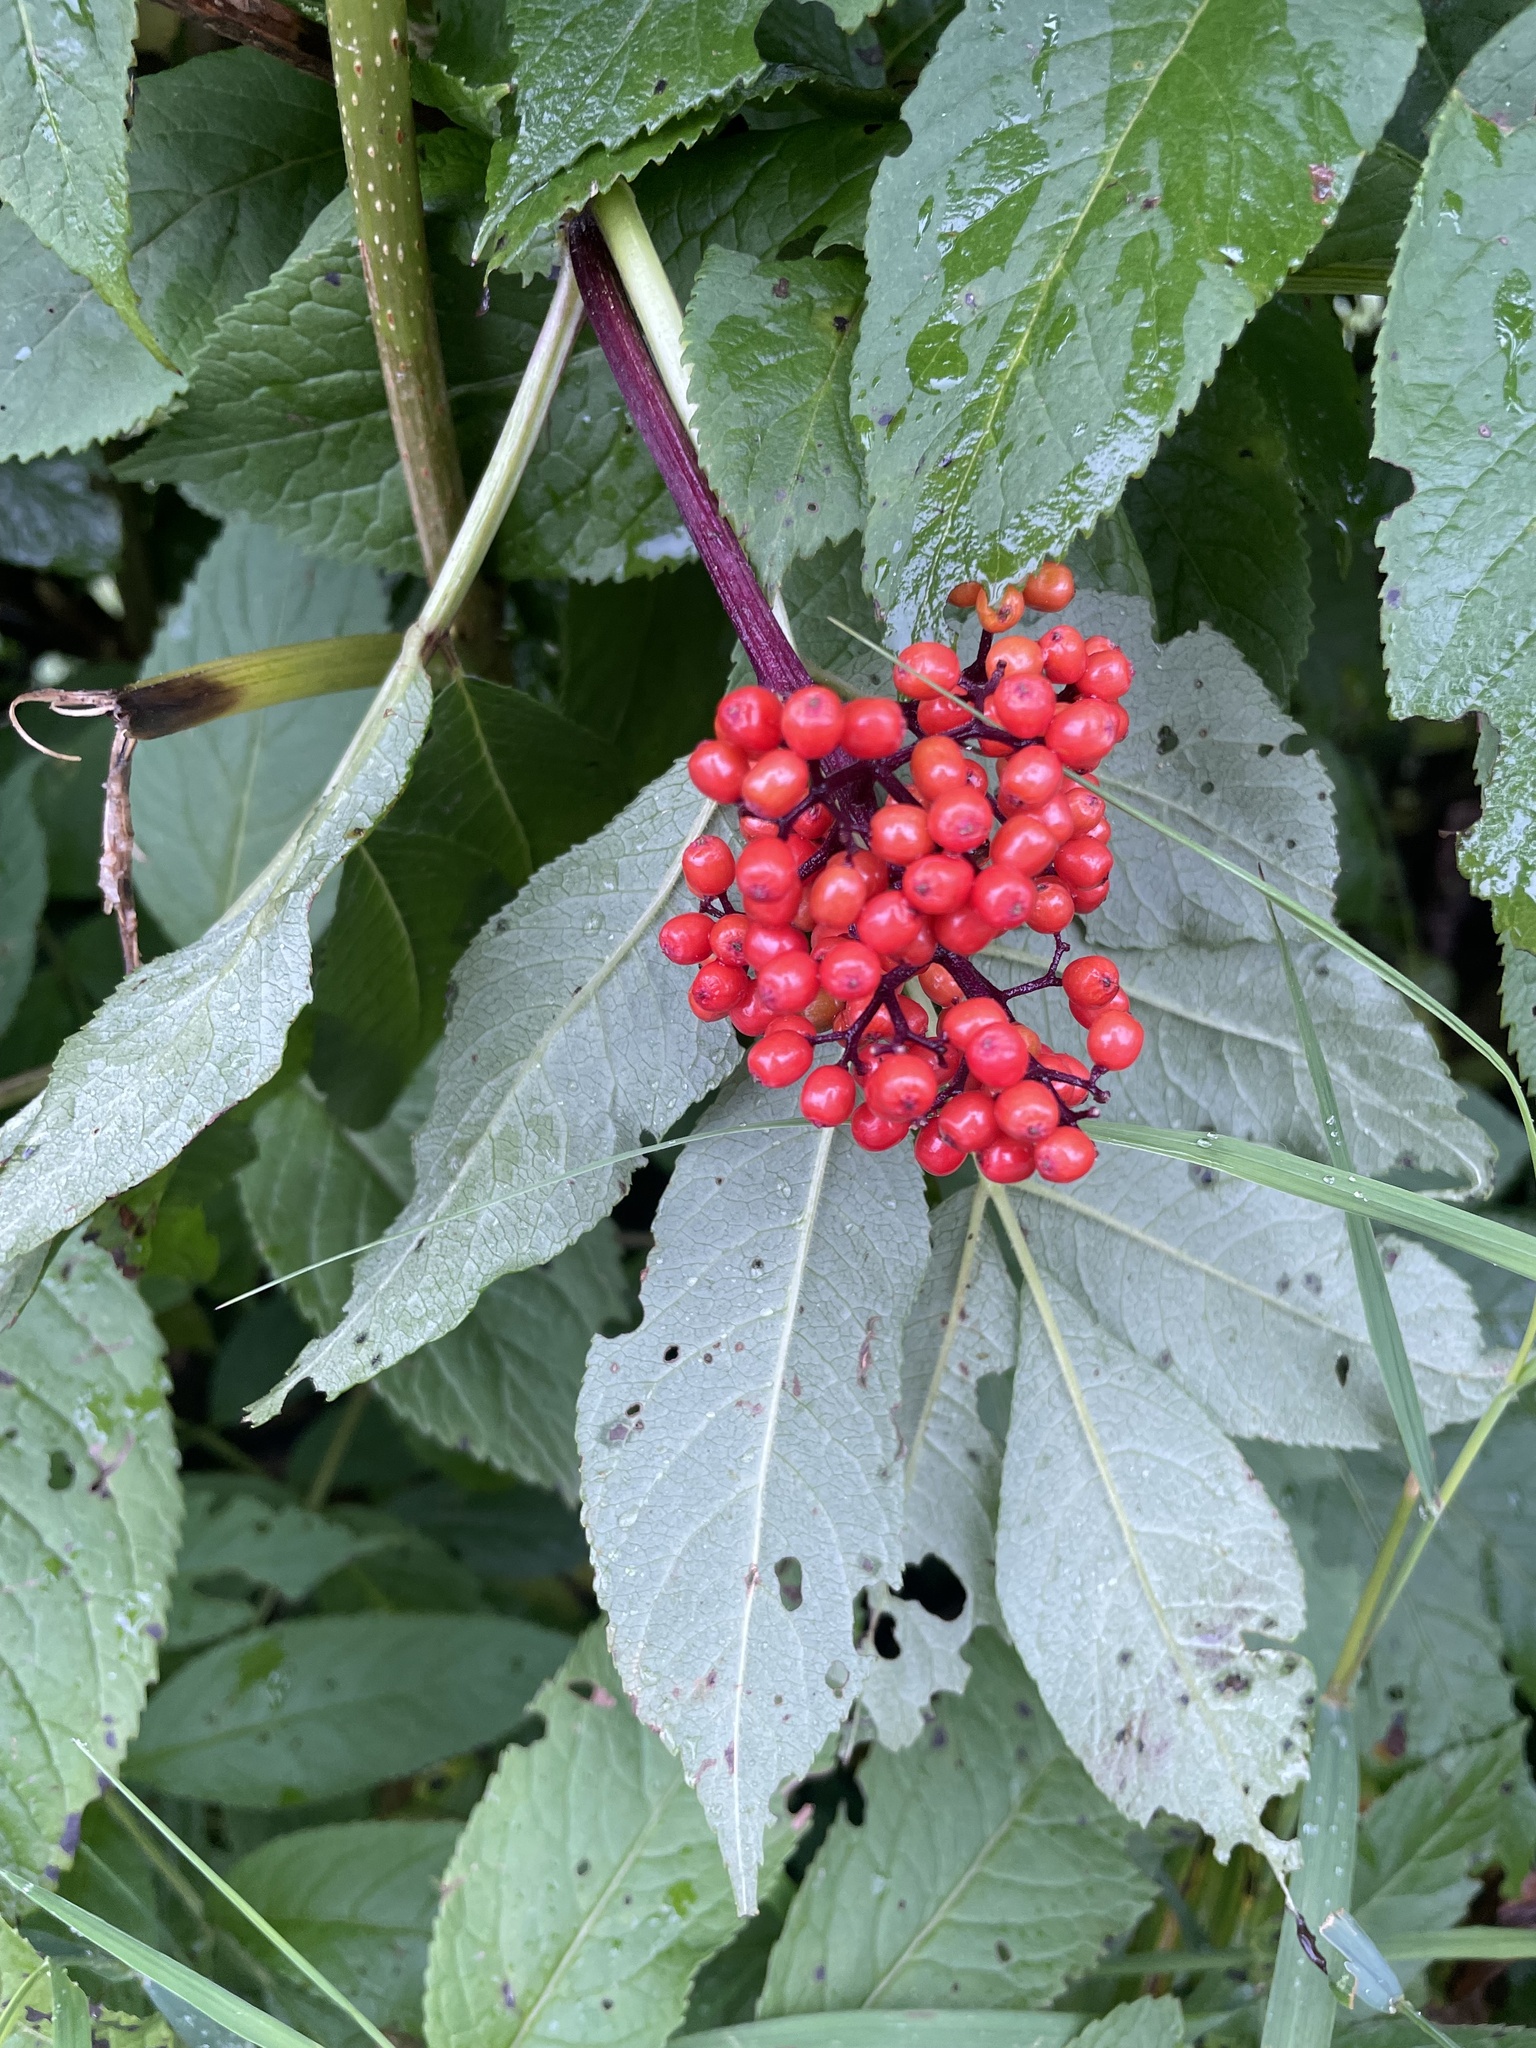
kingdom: Plantae
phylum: Tracheophyta
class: Magnoliopsida
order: Dipsacales
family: Viburnaceae
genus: Sambucus
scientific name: Sambucus racemosa
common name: Red-berried elder
